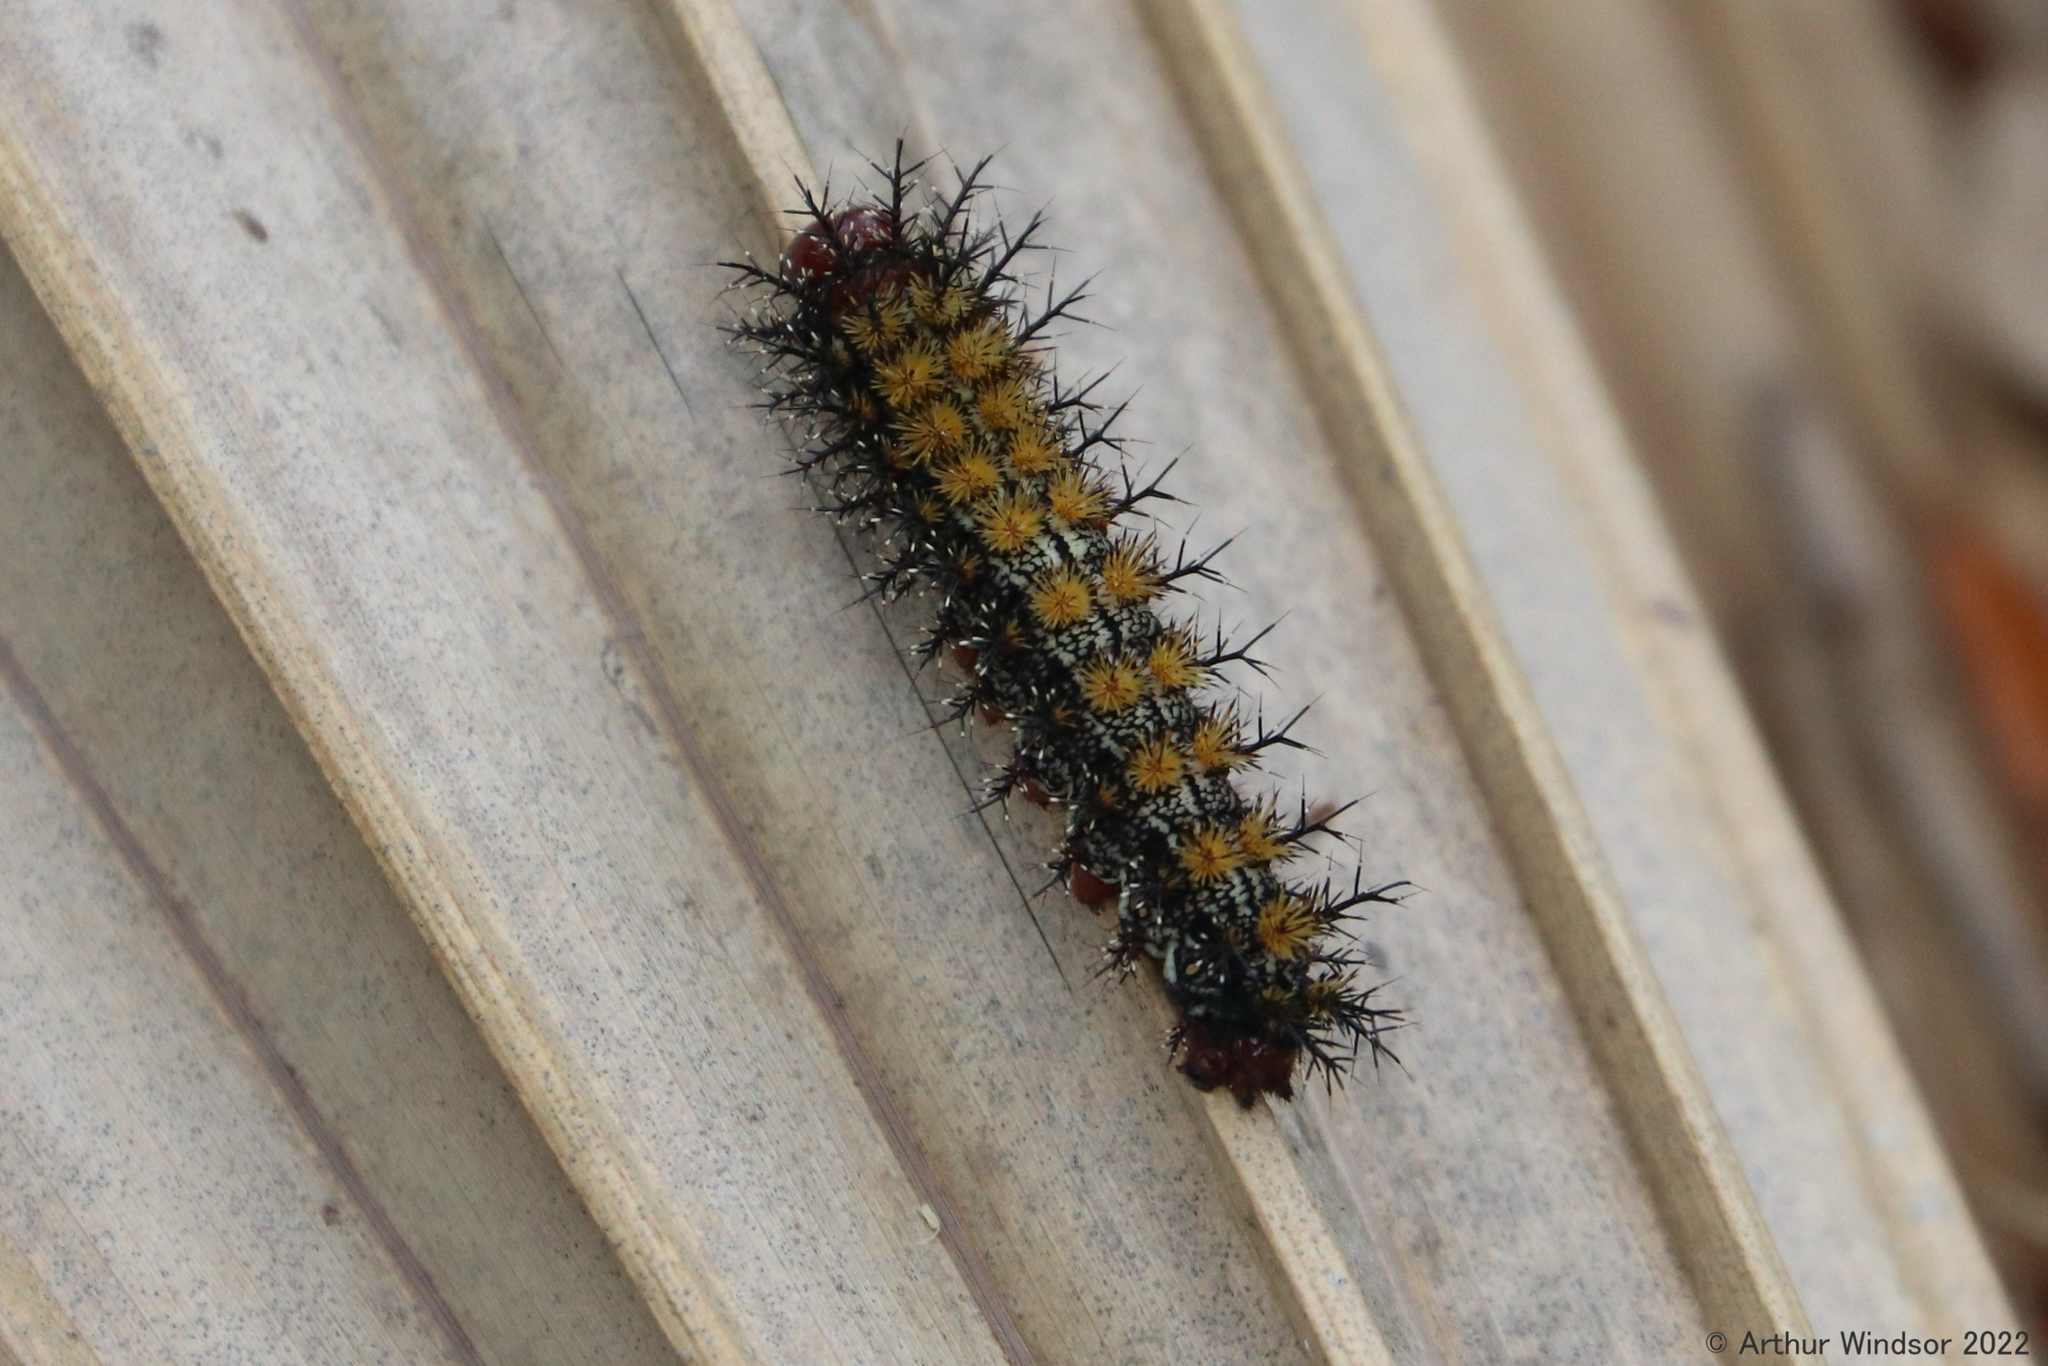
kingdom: Animalia
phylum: Arthropoda
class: Insecta
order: Lepidoptera
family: Saturniidae
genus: Hemileuca
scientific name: Hemileuca maia
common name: Eastern buckmoth
